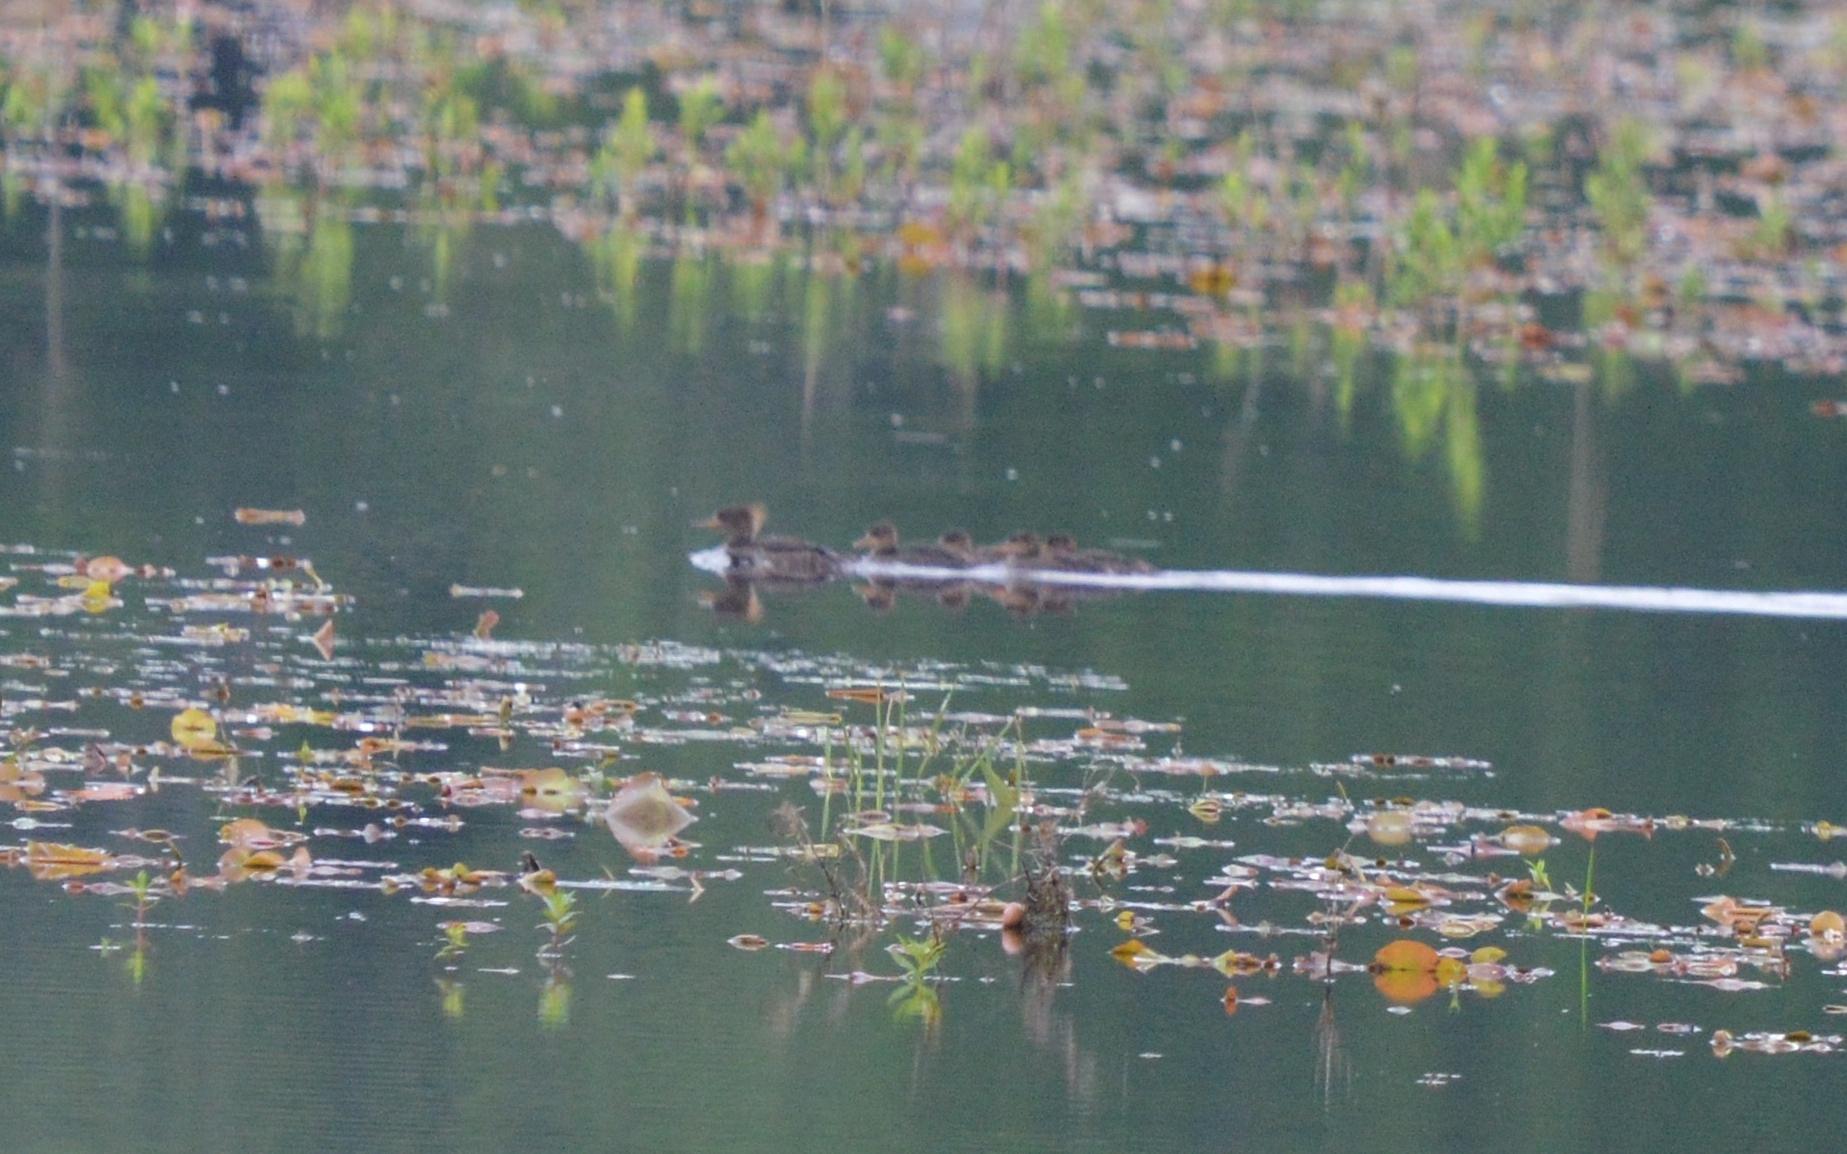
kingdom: Animalia
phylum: Chordata
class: Aves
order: Anseriformes
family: Anatidae
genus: Lophodytes
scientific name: Lophodytes cucullatus
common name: Hooded merganser
